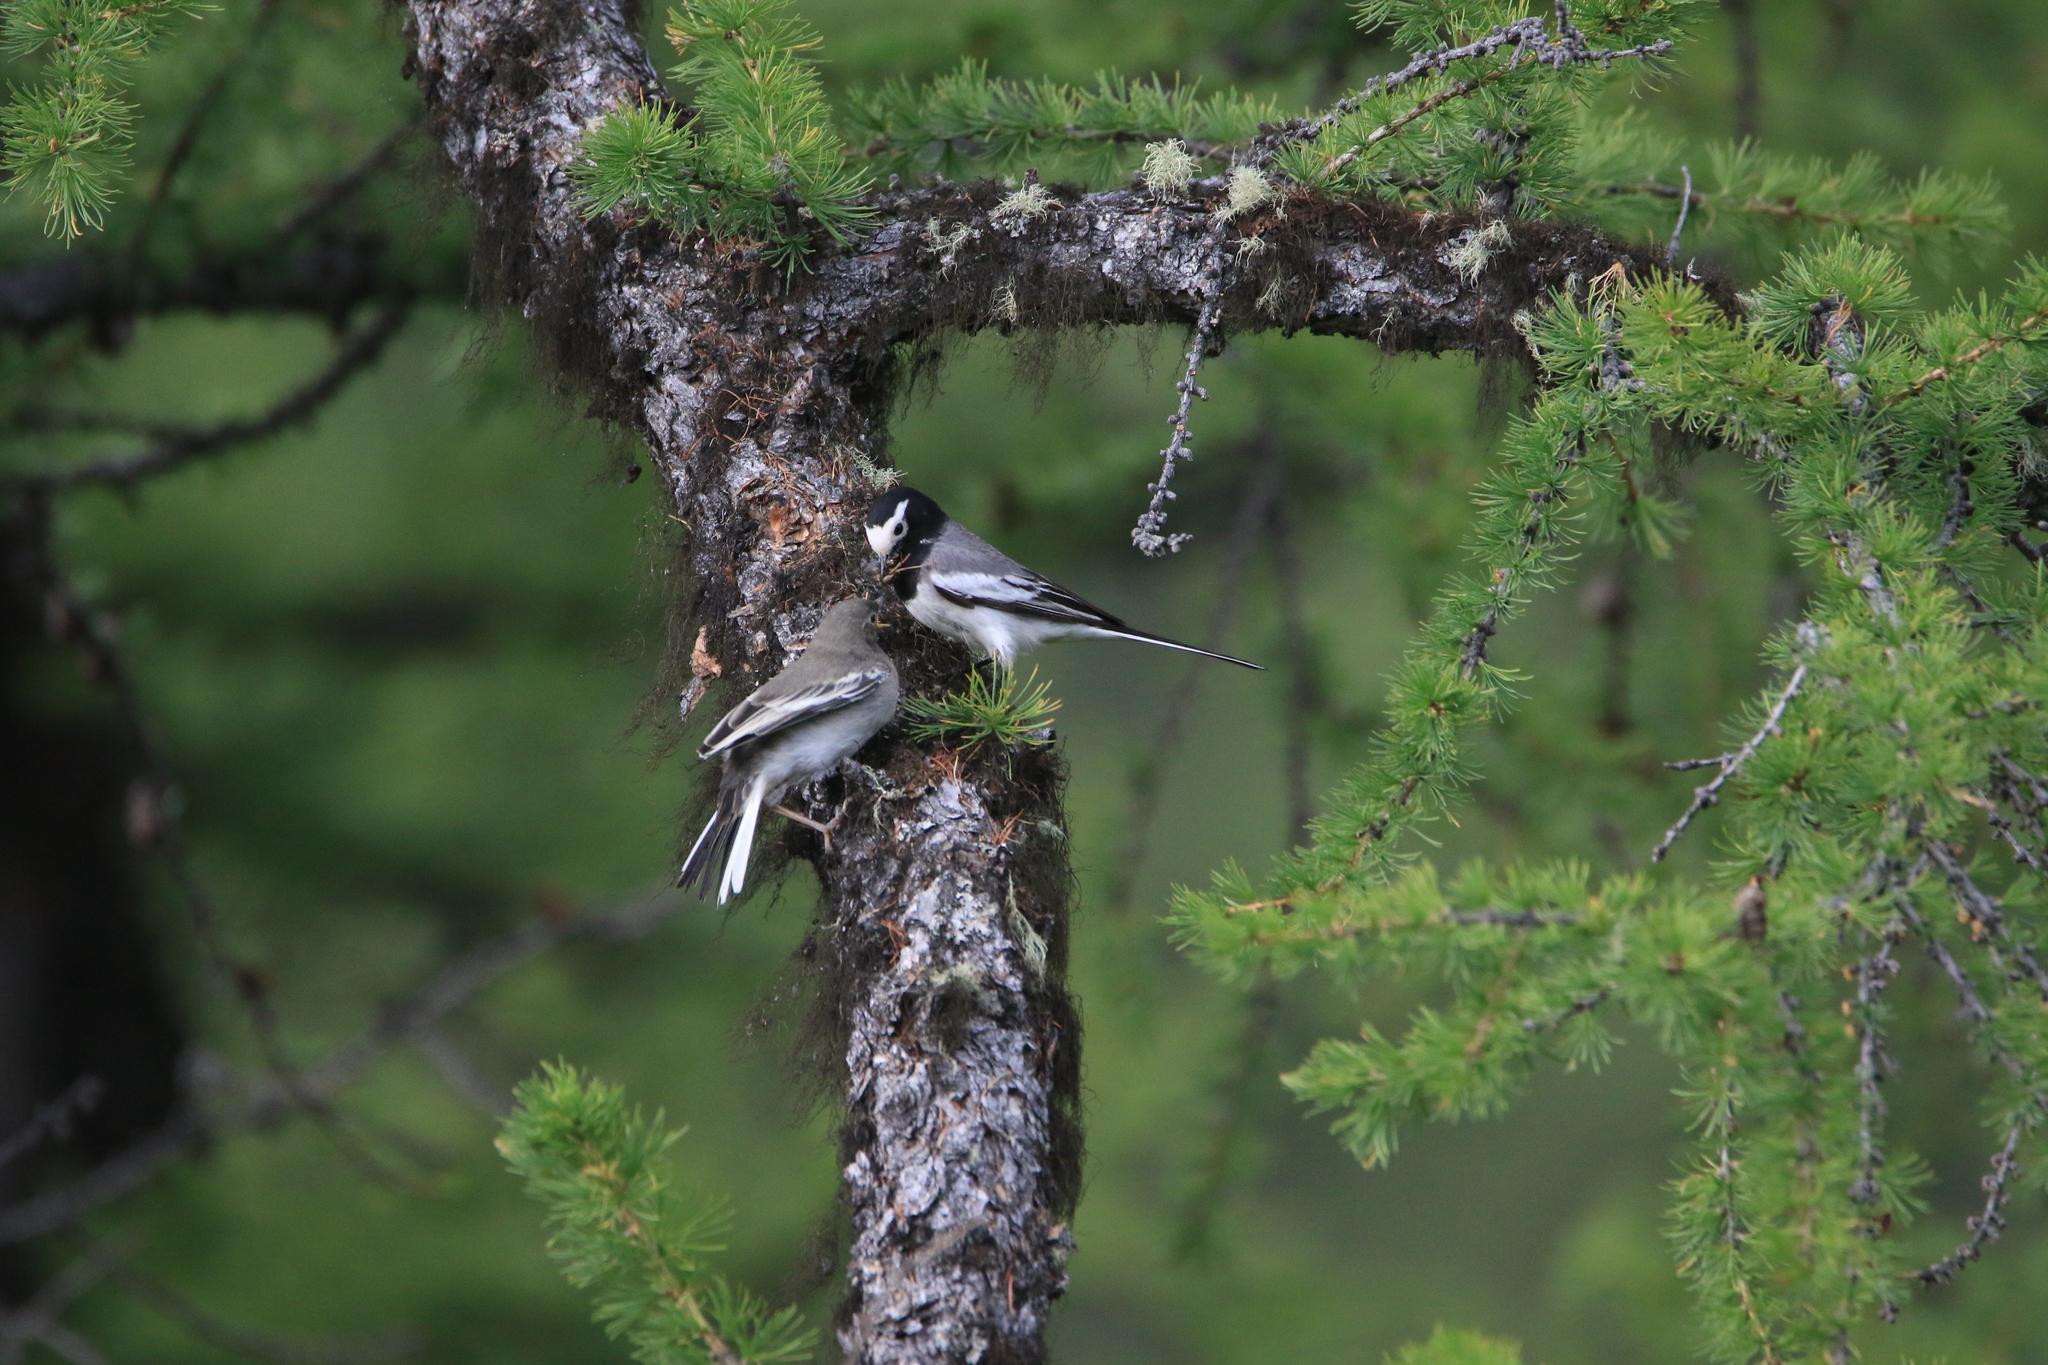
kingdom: Animalia
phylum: Chordata
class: Aves
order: Passeriformes
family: Motacillidae
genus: Motacilla
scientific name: Motacilla alba
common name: White wagtail
